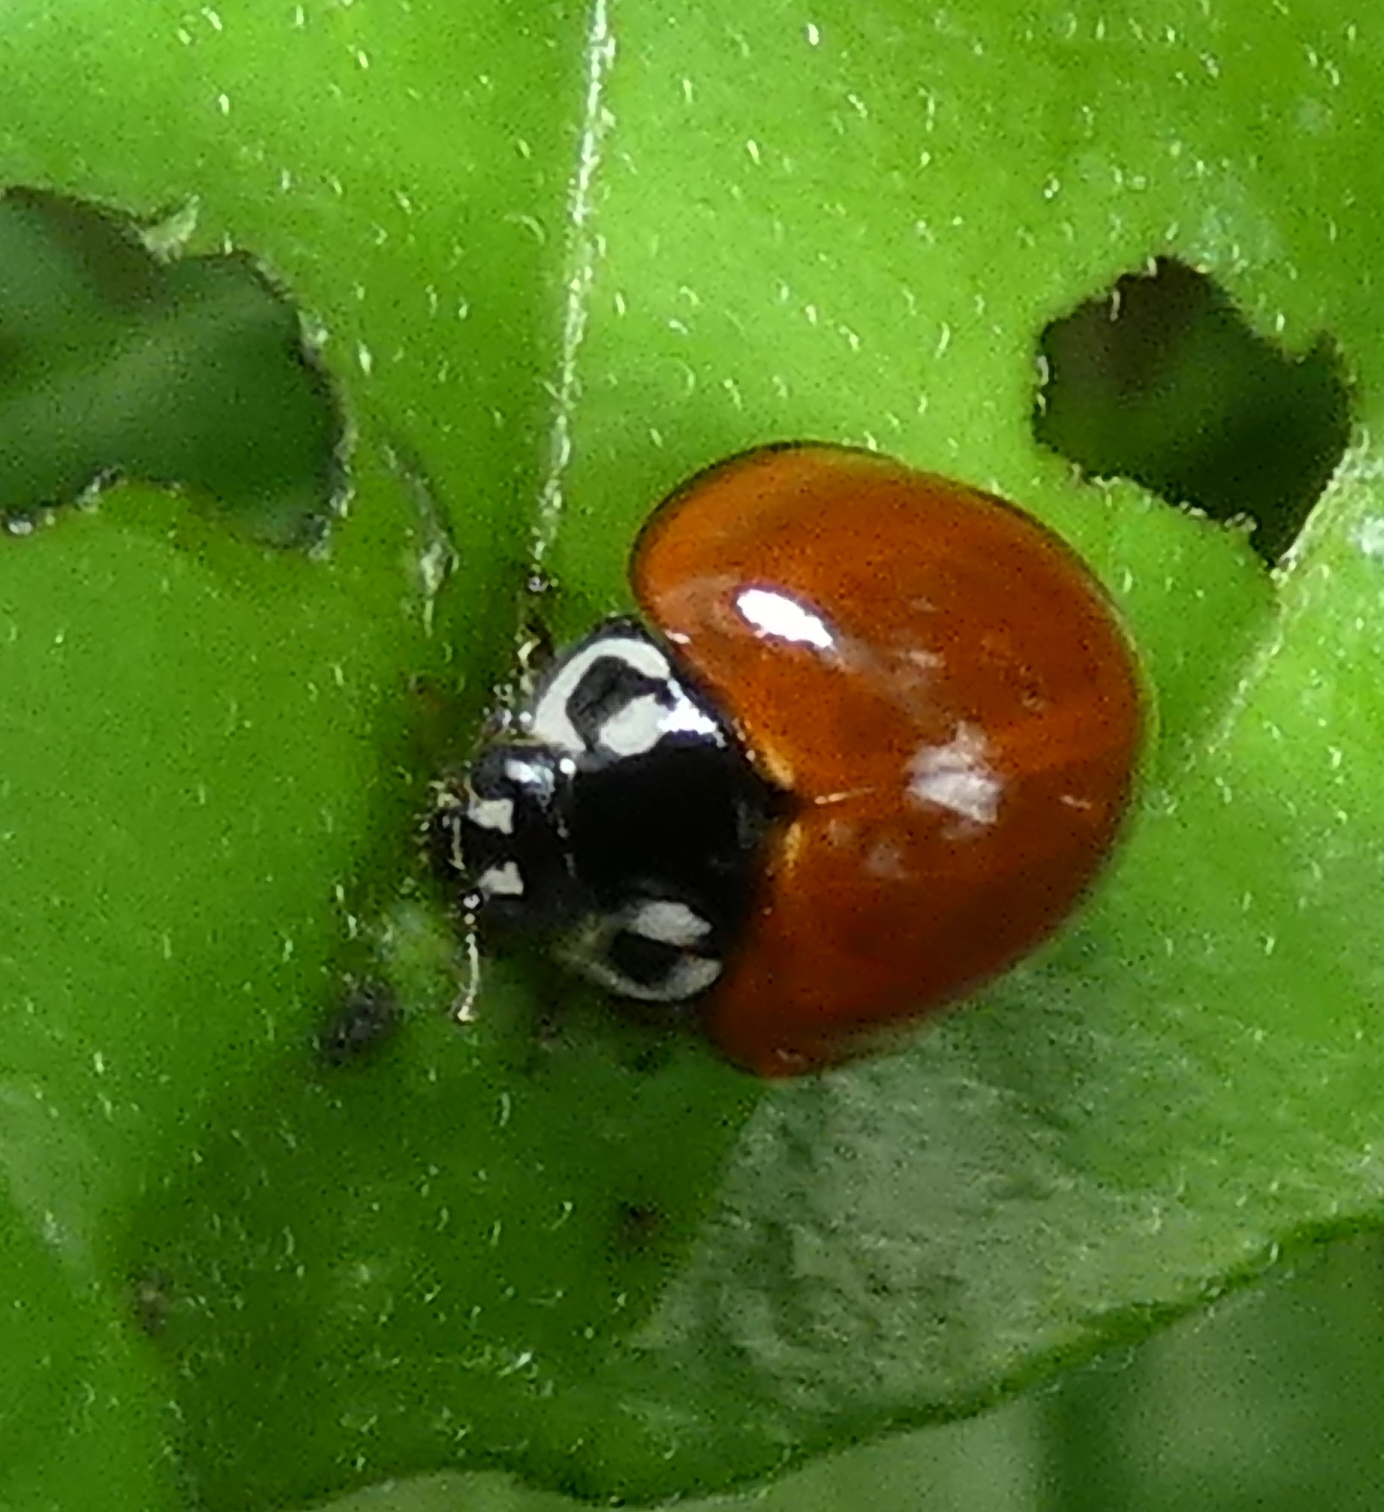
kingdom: Animalia
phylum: Arthropoda
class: Insecta
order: Coleoptera
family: Coccinellidae
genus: Cycloneda
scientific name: Cycloneda sanguinea
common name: Ladybird beetle
